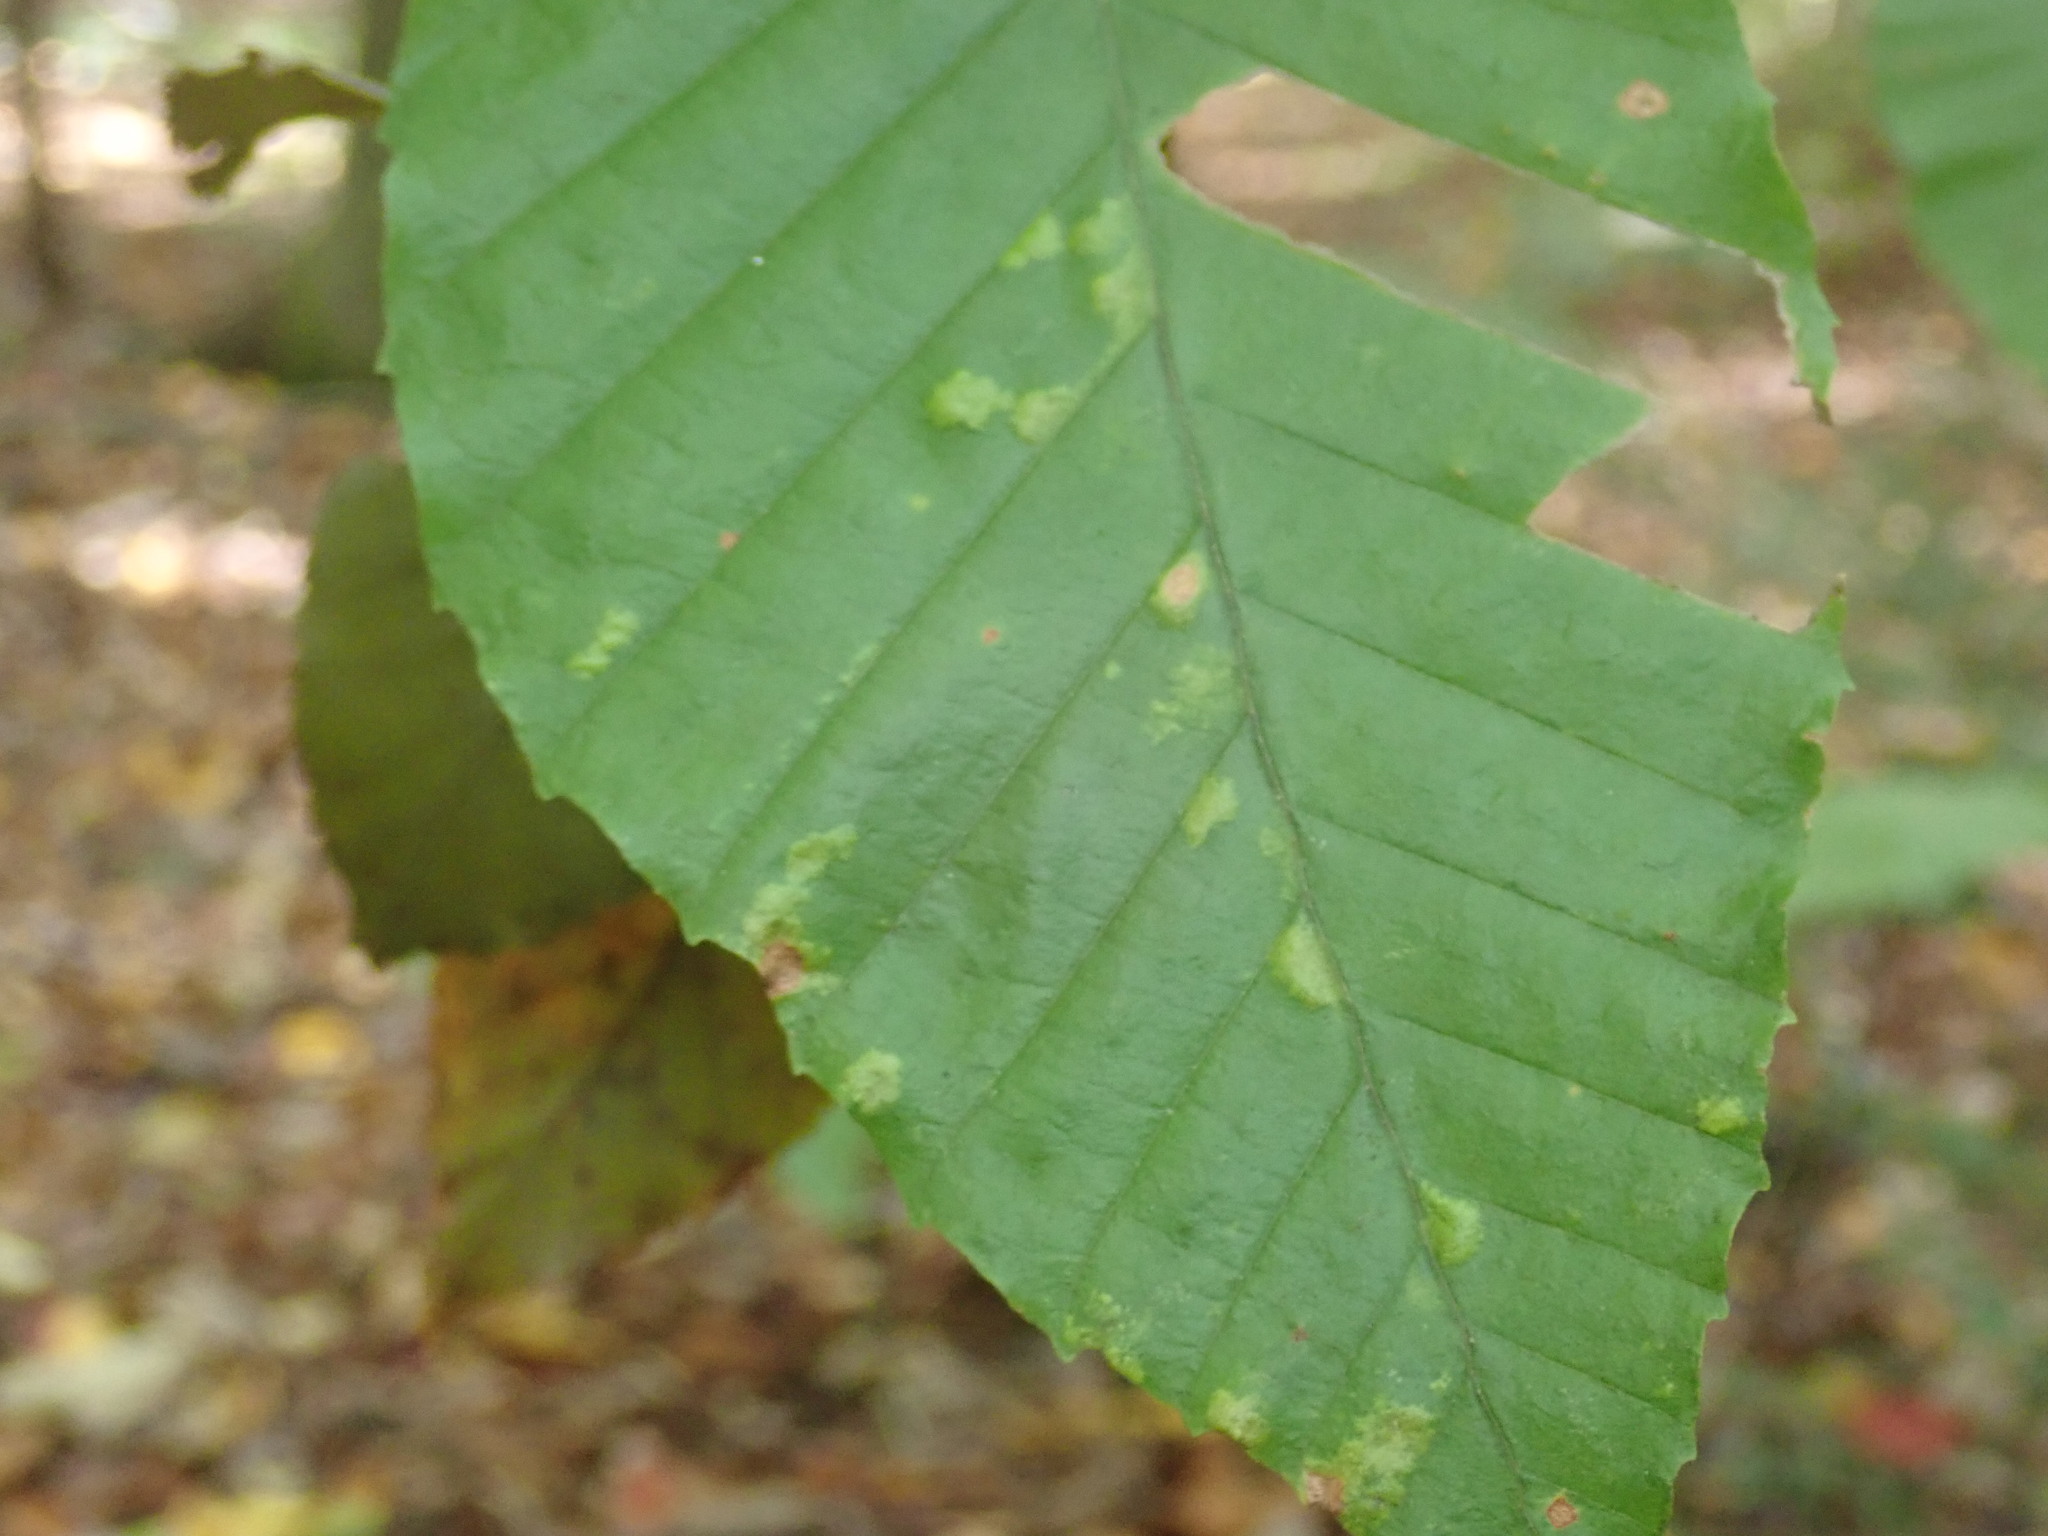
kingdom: Animalia
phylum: Arthropoda
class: Arachnida
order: Trombidiformes
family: Eriophyidae
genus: Acalitus
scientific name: Acalitus
